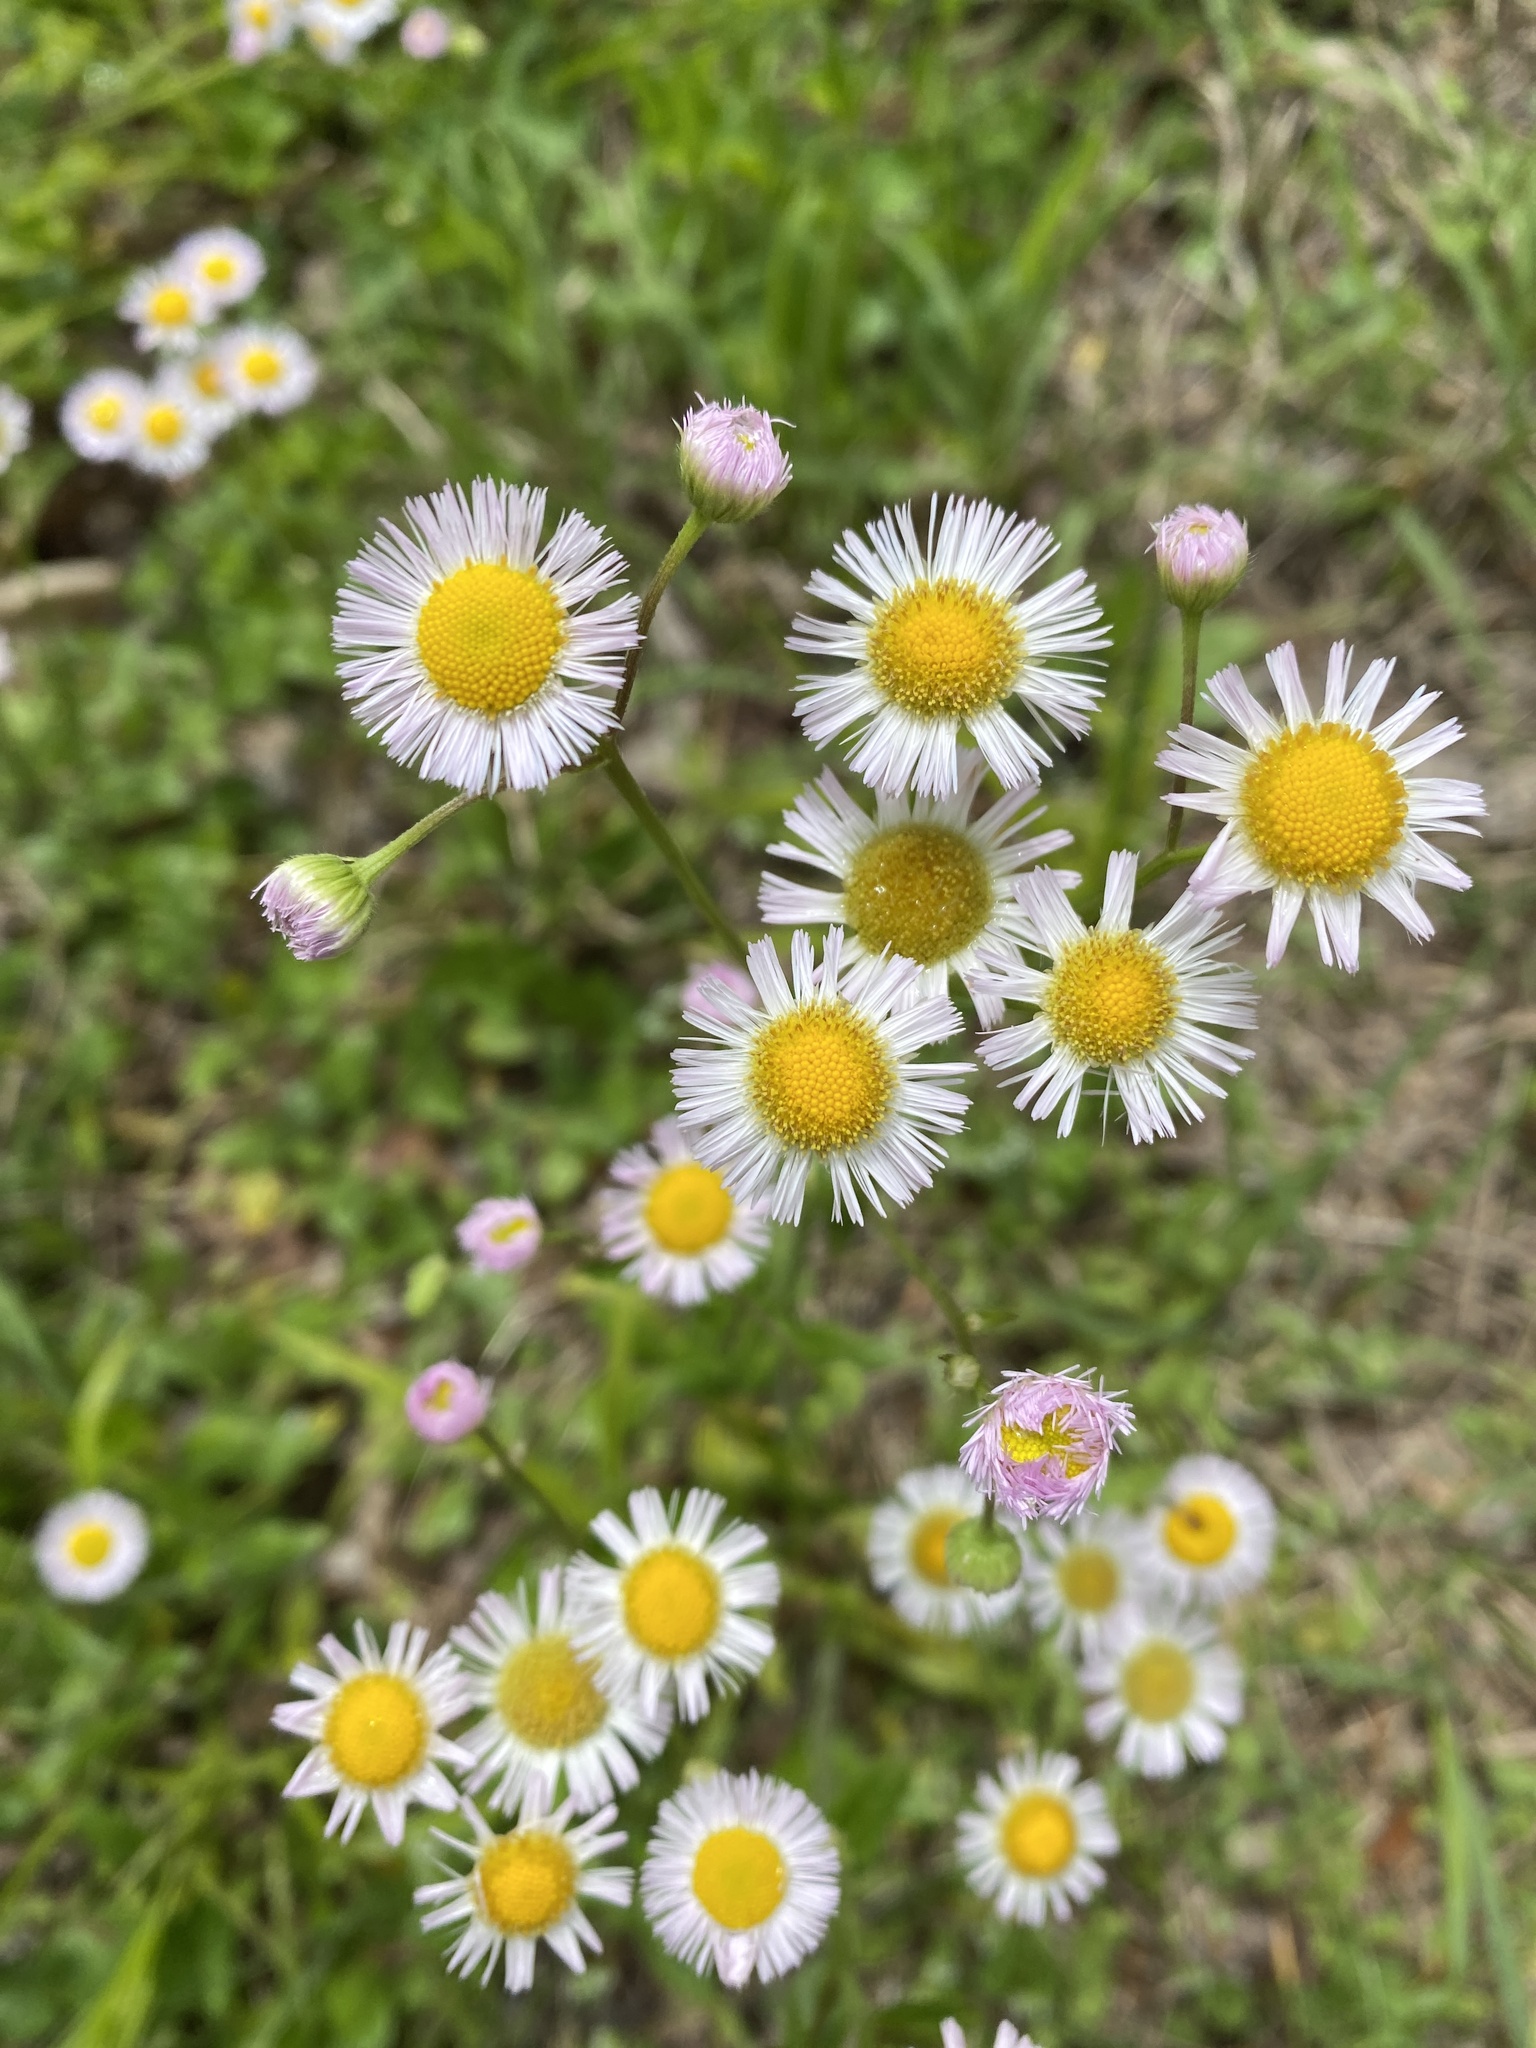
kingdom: Plantae
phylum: Tracheophyta
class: Magnoliopsida
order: Asterales
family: Asteraceae
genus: Erigeron
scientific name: Erigeron philadelphicus
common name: Robin's-plantain
